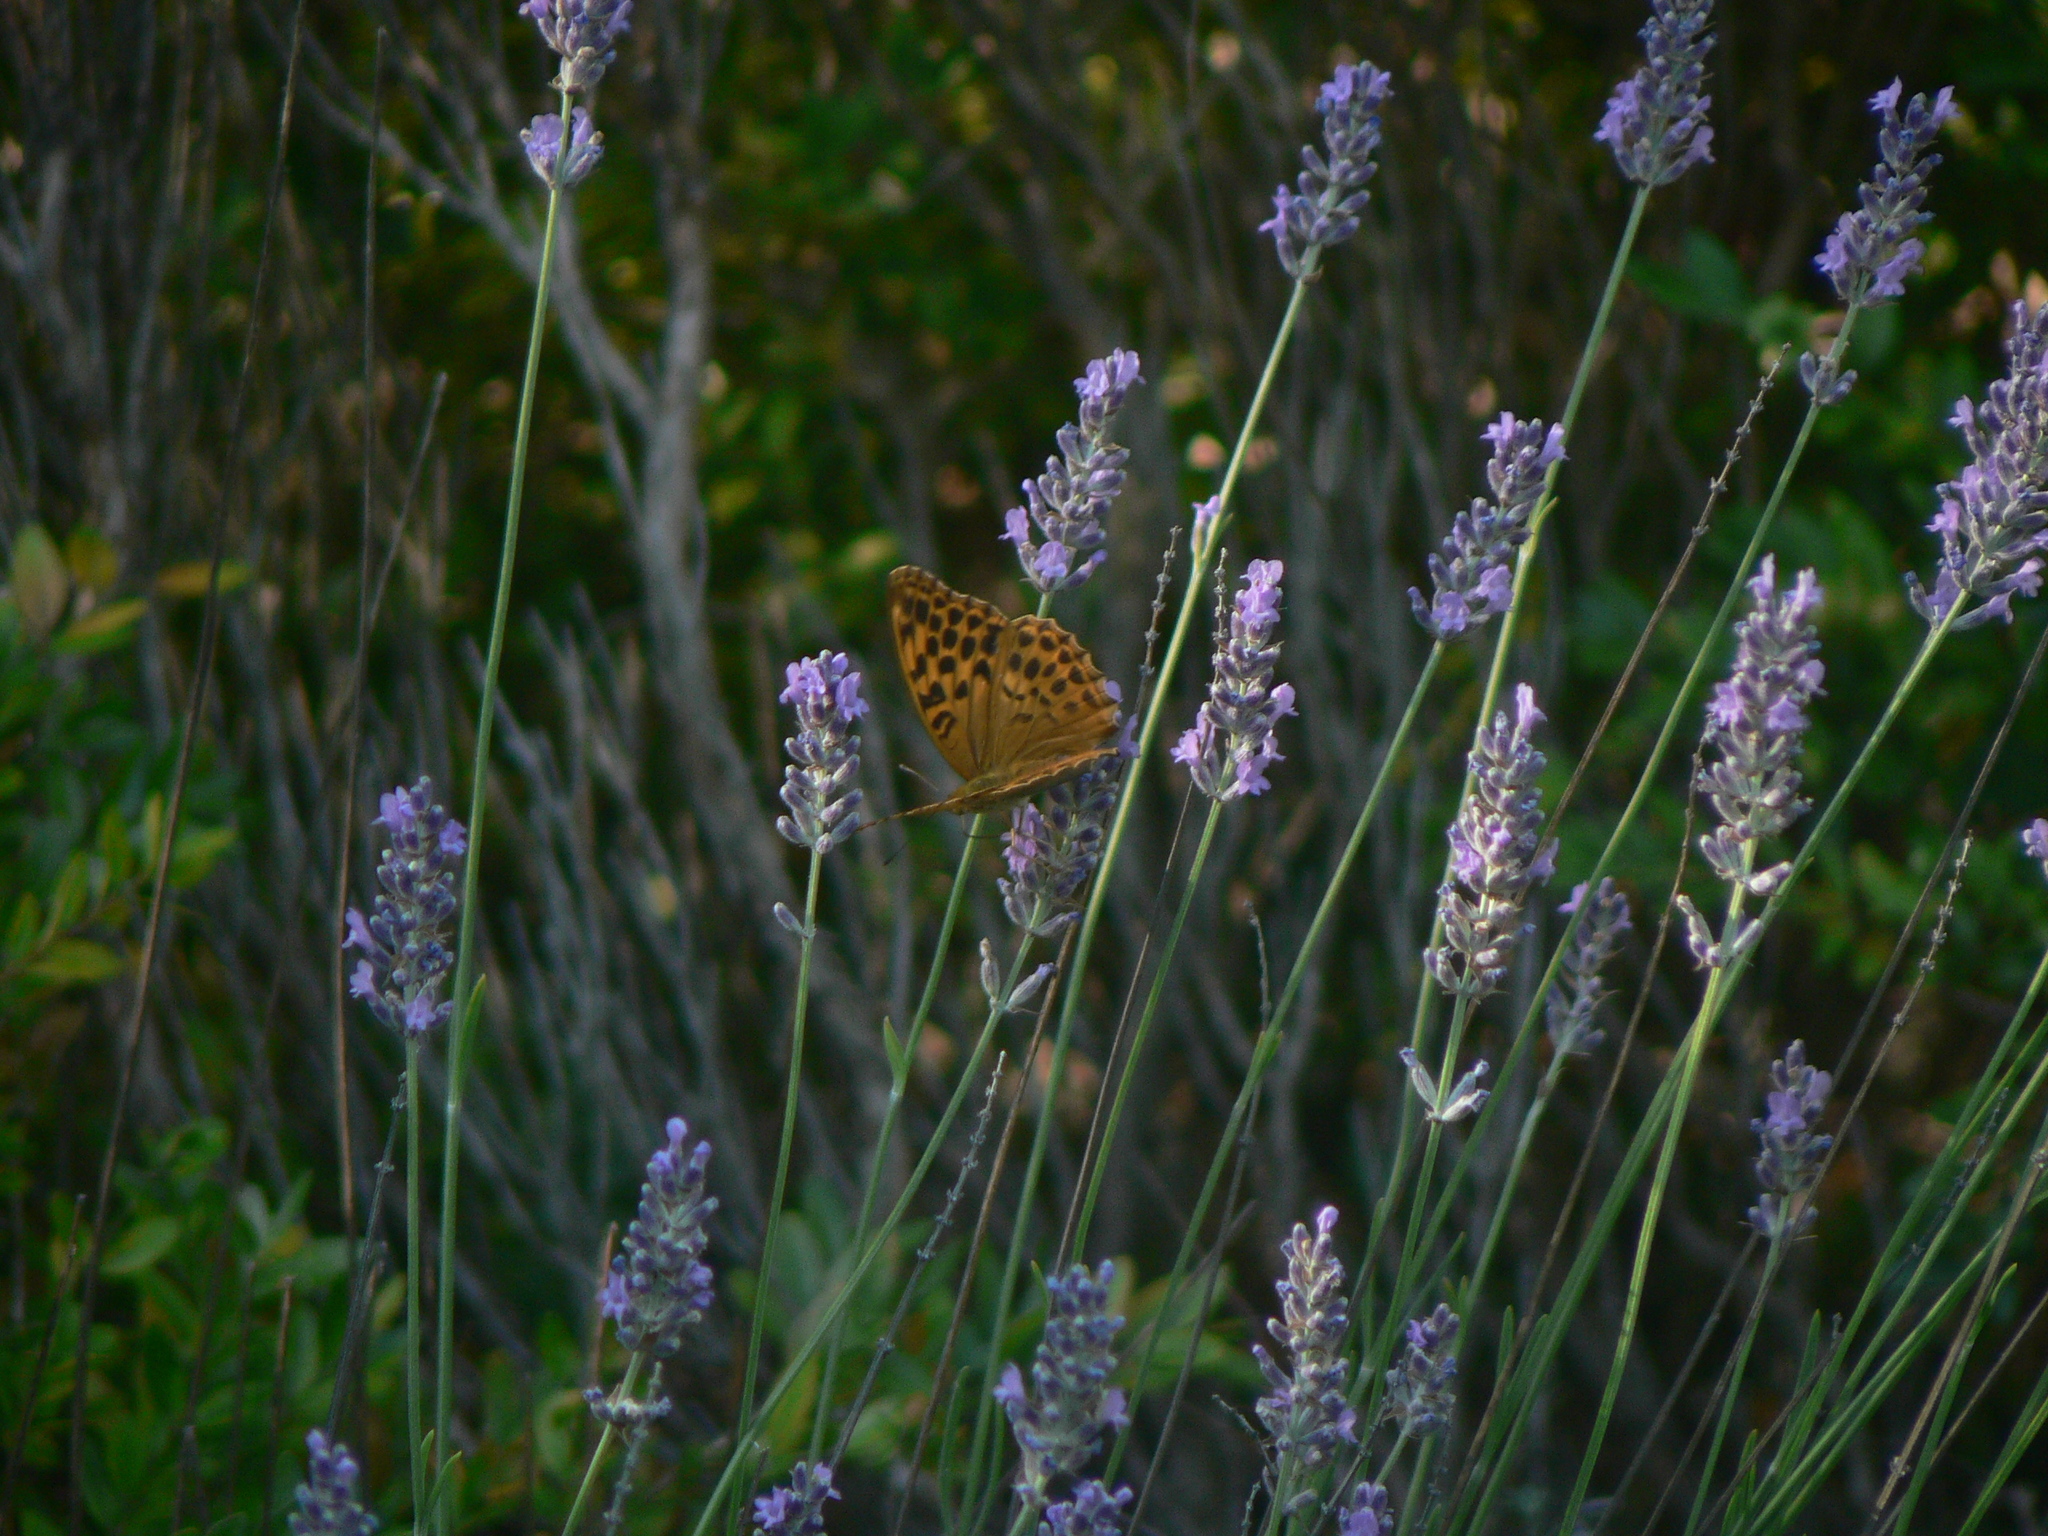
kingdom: Animalia
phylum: Arthropoda
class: Insecta
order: Lepidoptera
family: Nymphalidae
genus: Argynnis
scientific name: Argynnis paphia
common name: Silver-washed fritillary
